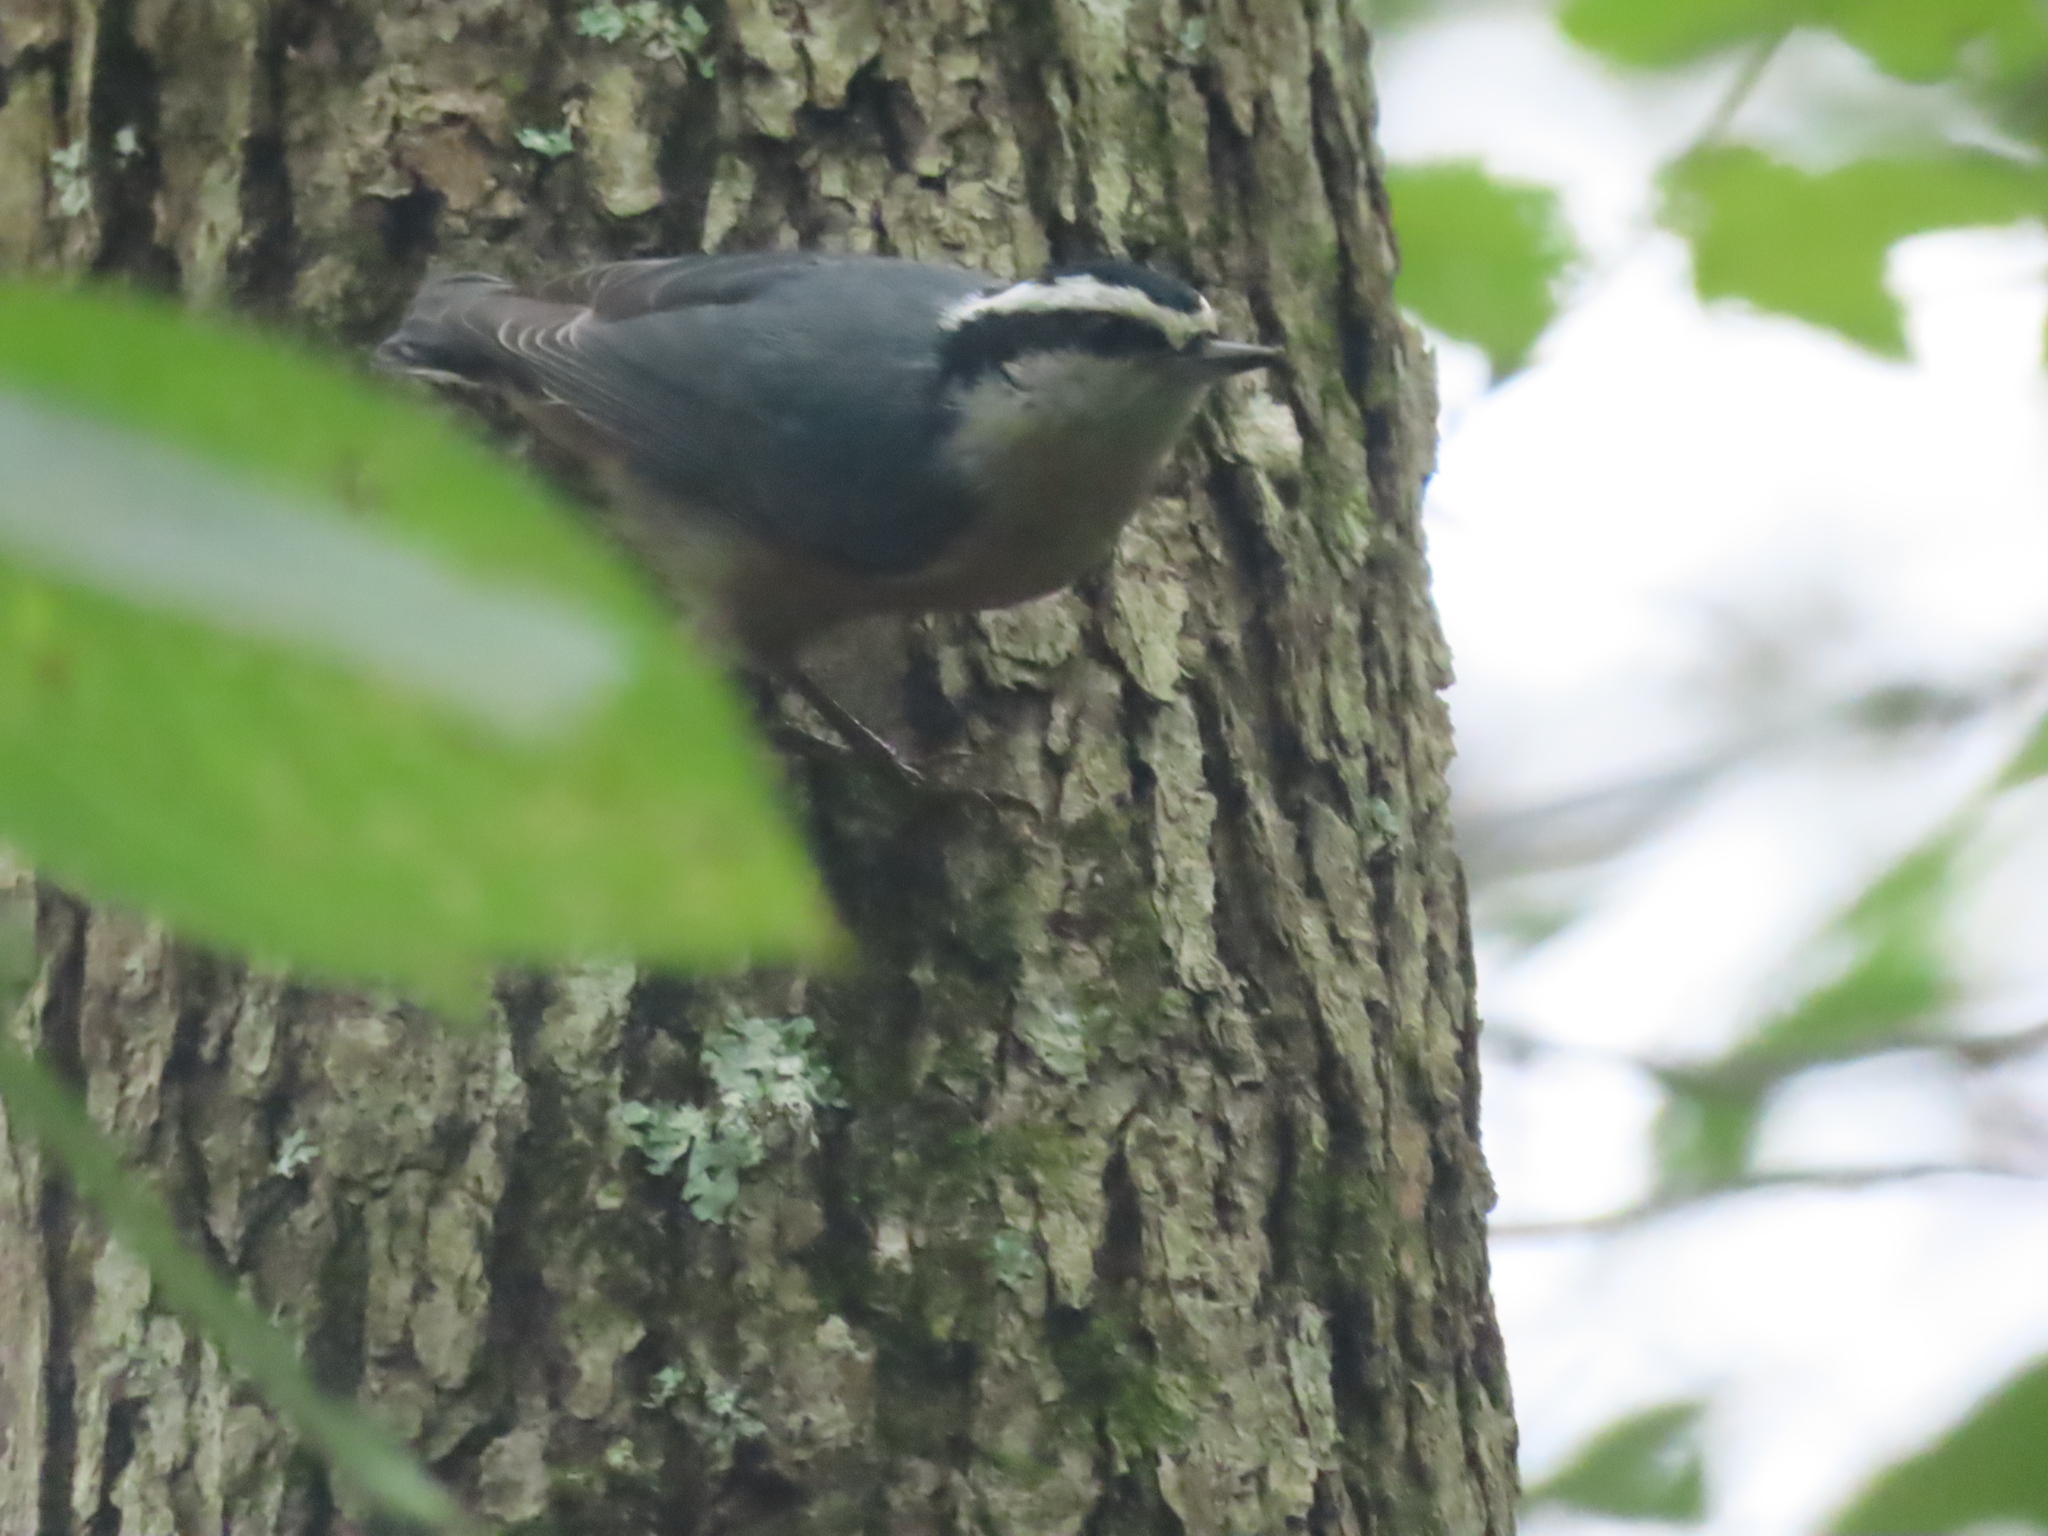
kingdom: Animalia
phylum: Chordata
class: Aves
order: Passeriformes
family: Sittidae
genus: Sitta
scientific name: Sitta canadensis
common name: Red-breasted nuthatch
